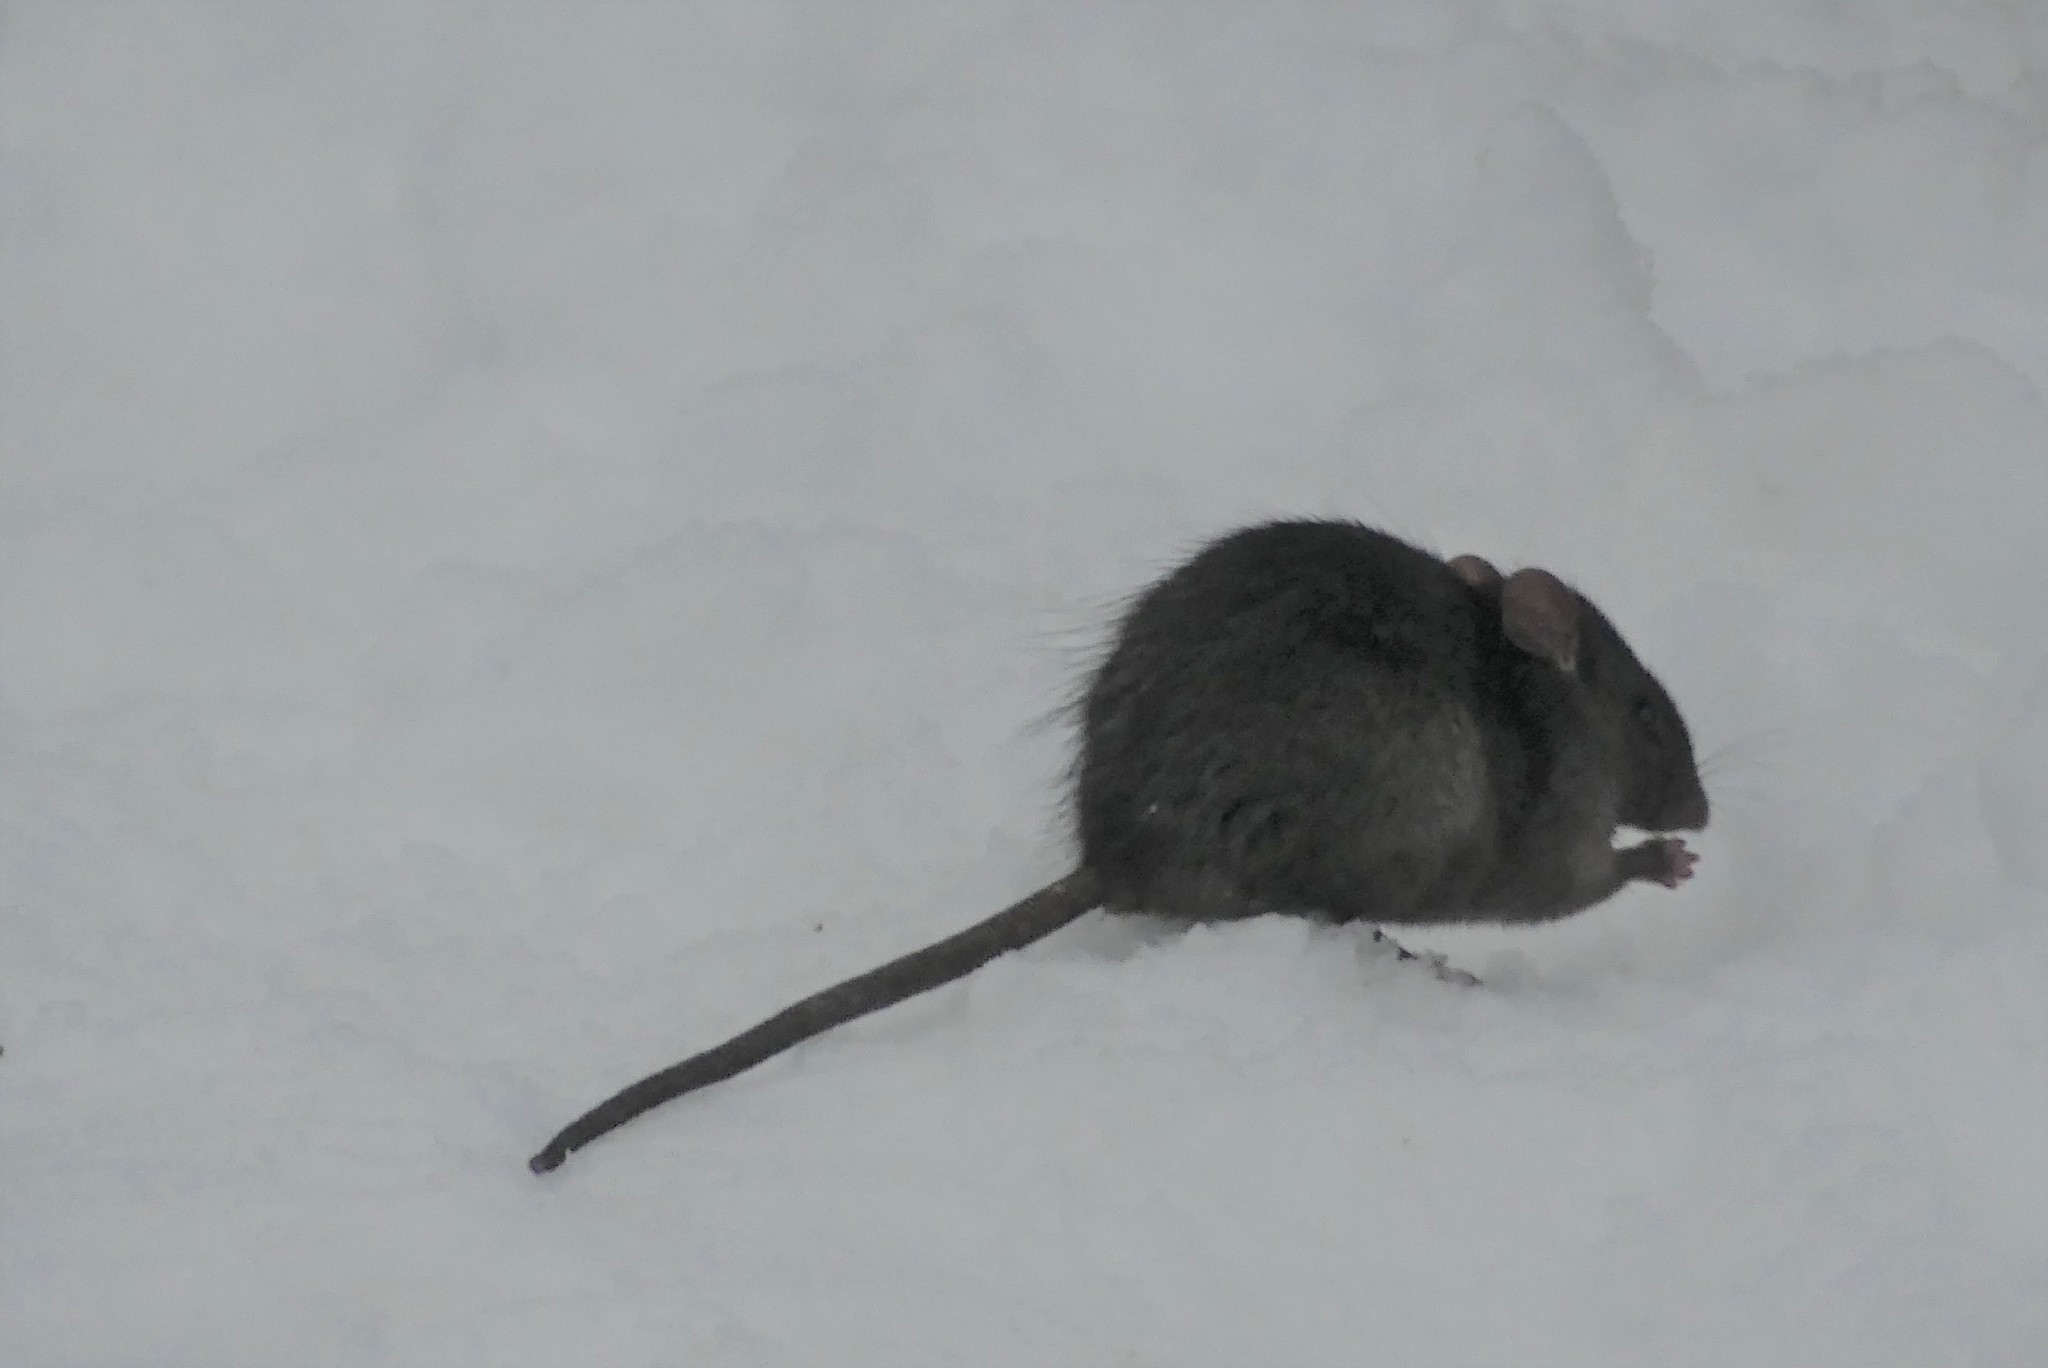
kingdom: Animalia
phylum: Chordata
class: Mammalia
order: Rodentia
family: Muridae
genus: Rattus
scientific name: Rattus rattus
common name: Black rat
